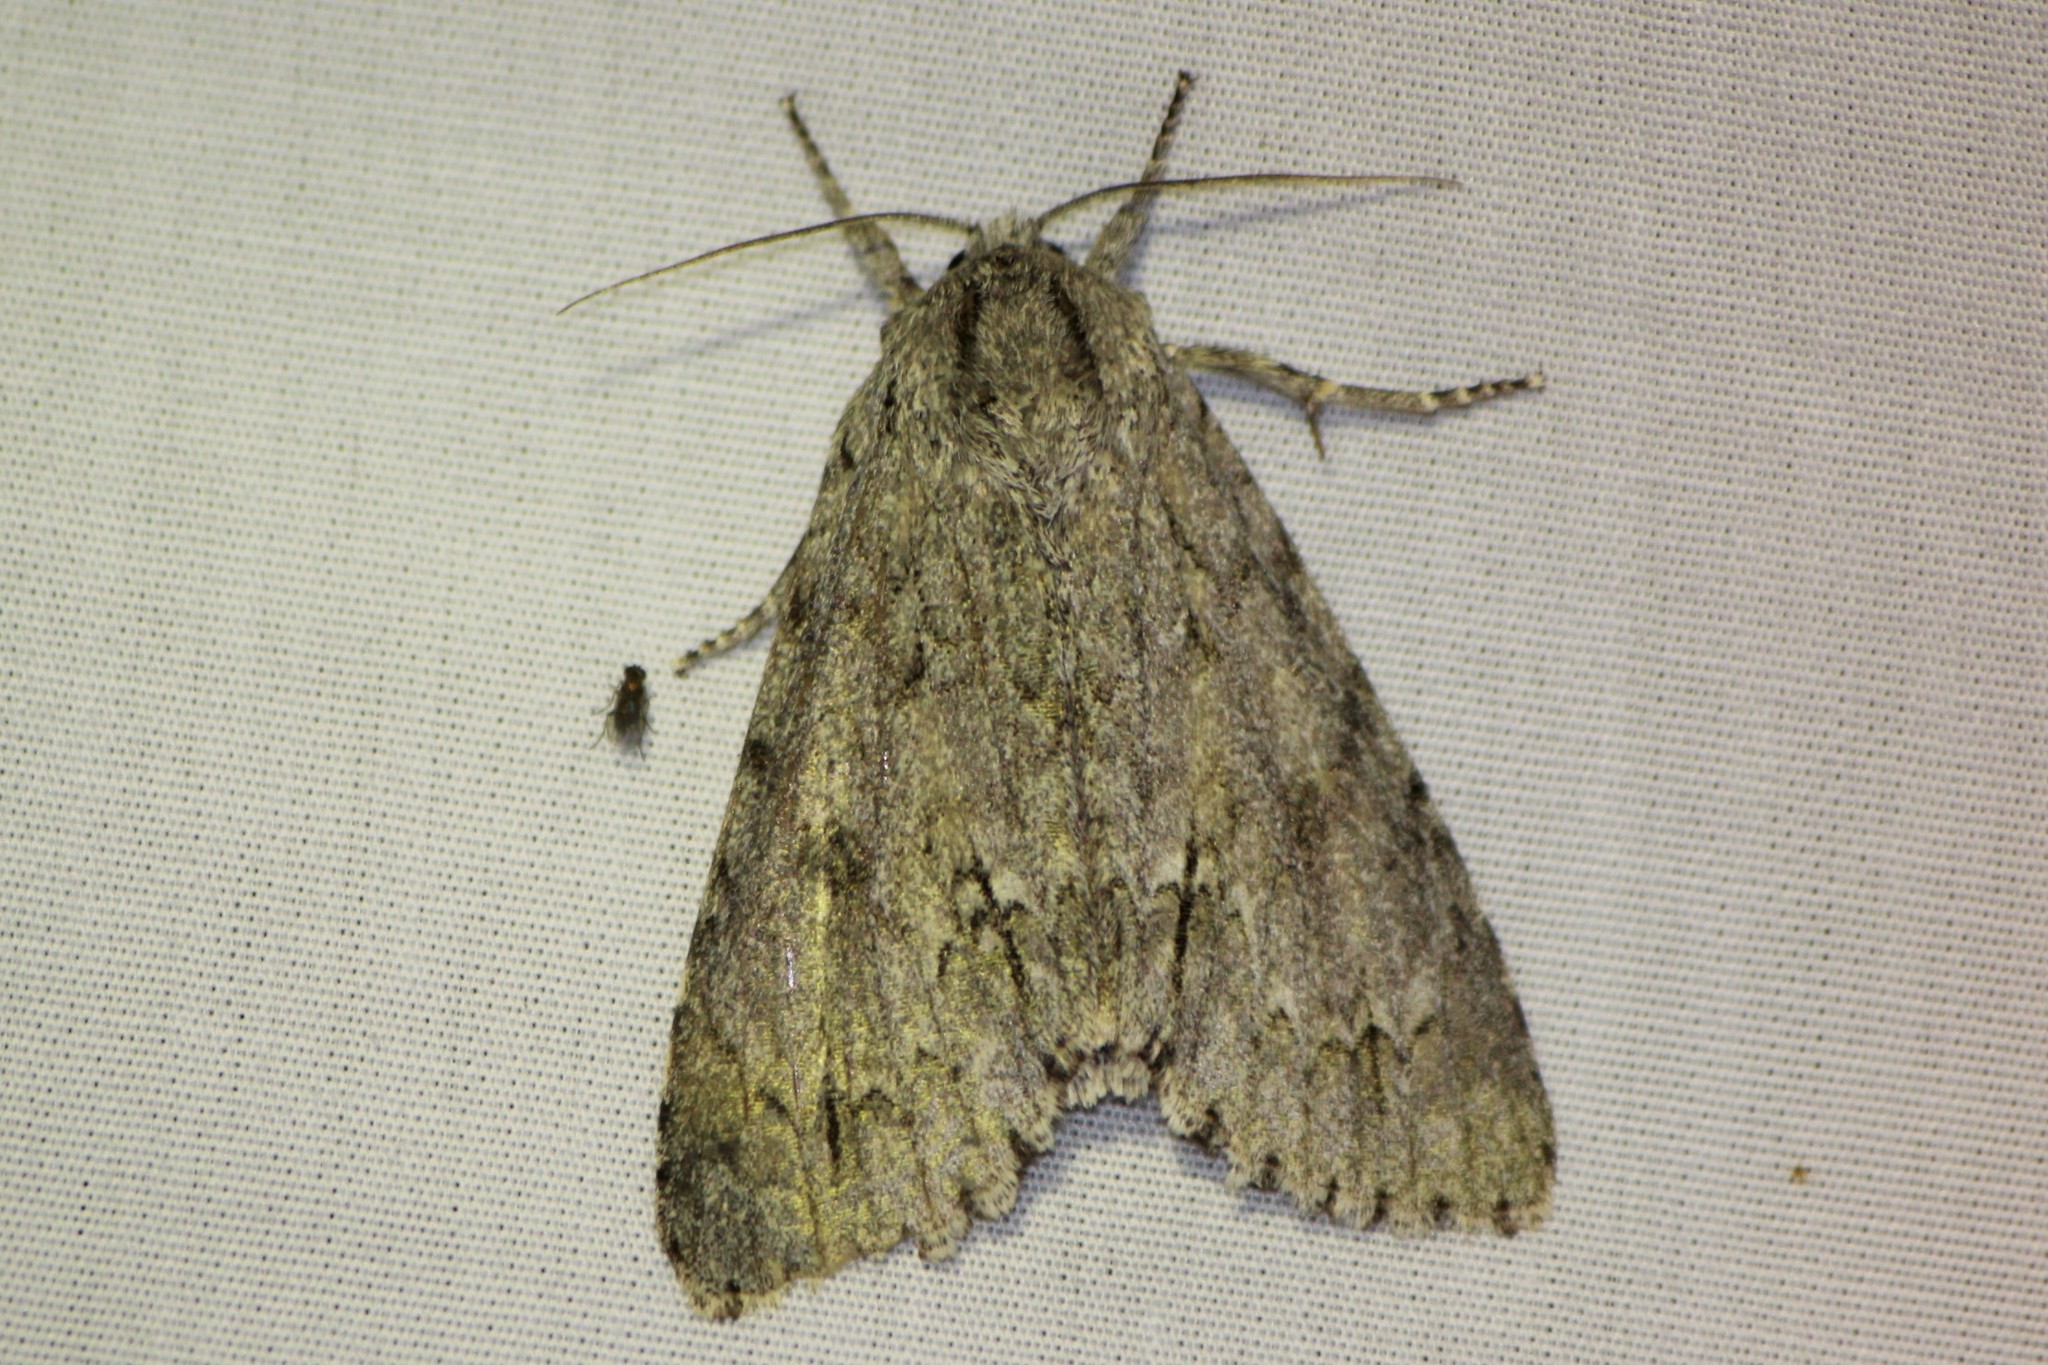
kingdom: Animalia
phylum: Arthropoda
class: Insecta
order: Lepidoptera
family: Noctuidae
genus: Acronicta
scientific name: Acronicta americana
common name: American dagger
